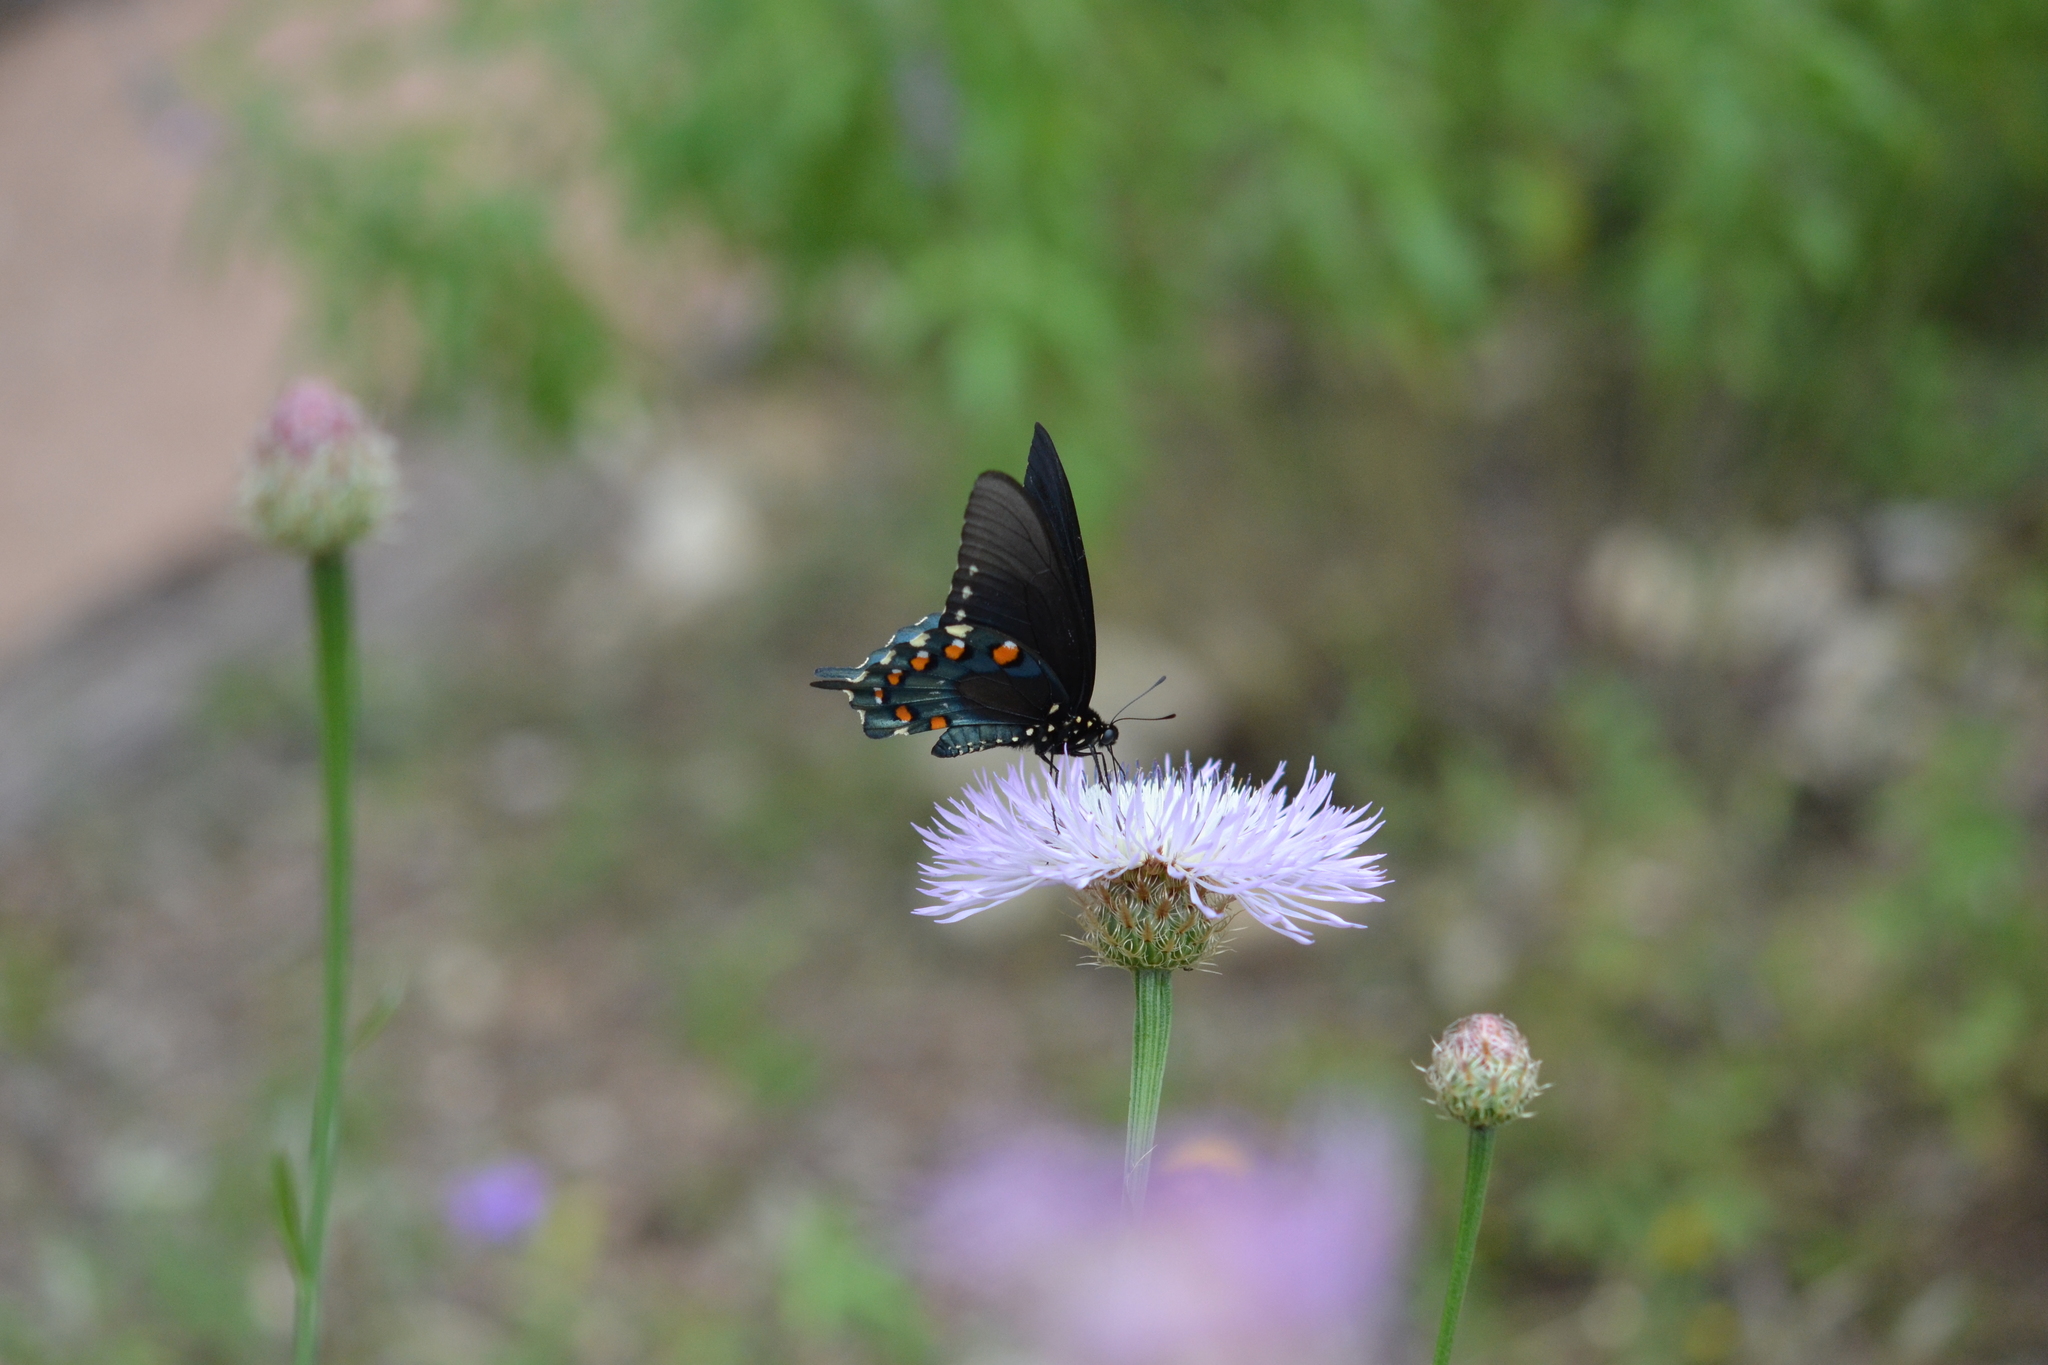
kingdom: Animalia
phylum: Arthropoda
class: Insecta
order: Lepidoptera
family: Papilionidae
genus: Battus
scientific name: Battus philenor
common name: Pipevine swallowtail
